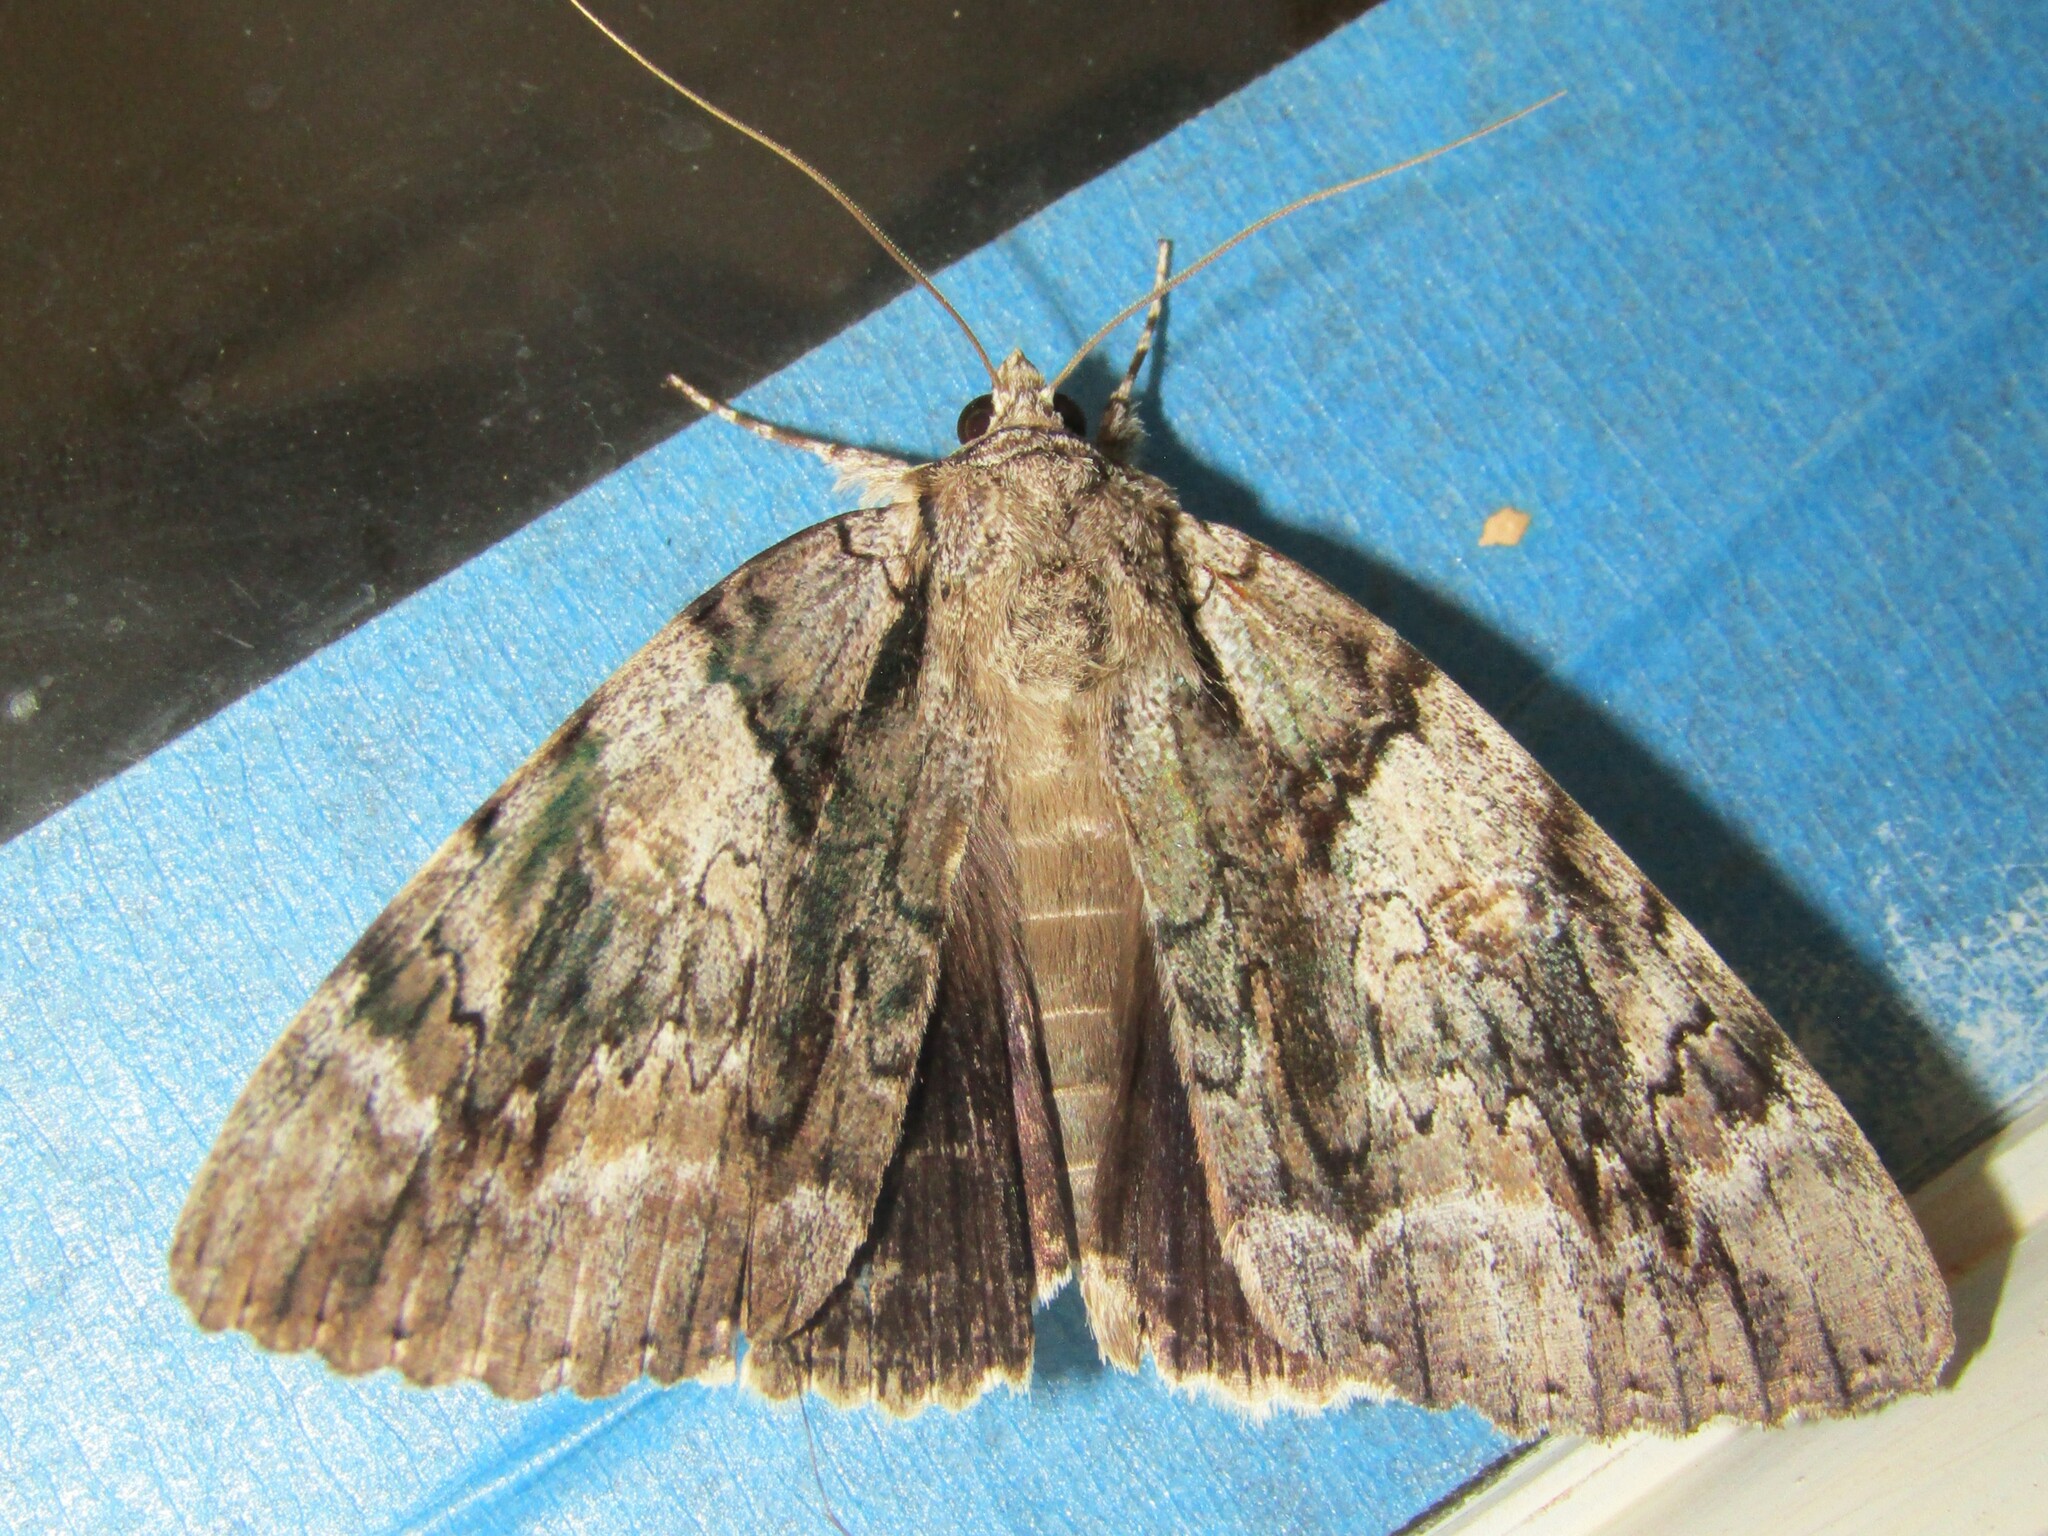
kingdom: Animalia
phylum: Arthropoda
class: Insecta
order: Lepidoptera
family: Erebidae
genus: Catocala
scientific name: Catocala vidua
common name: The widow
